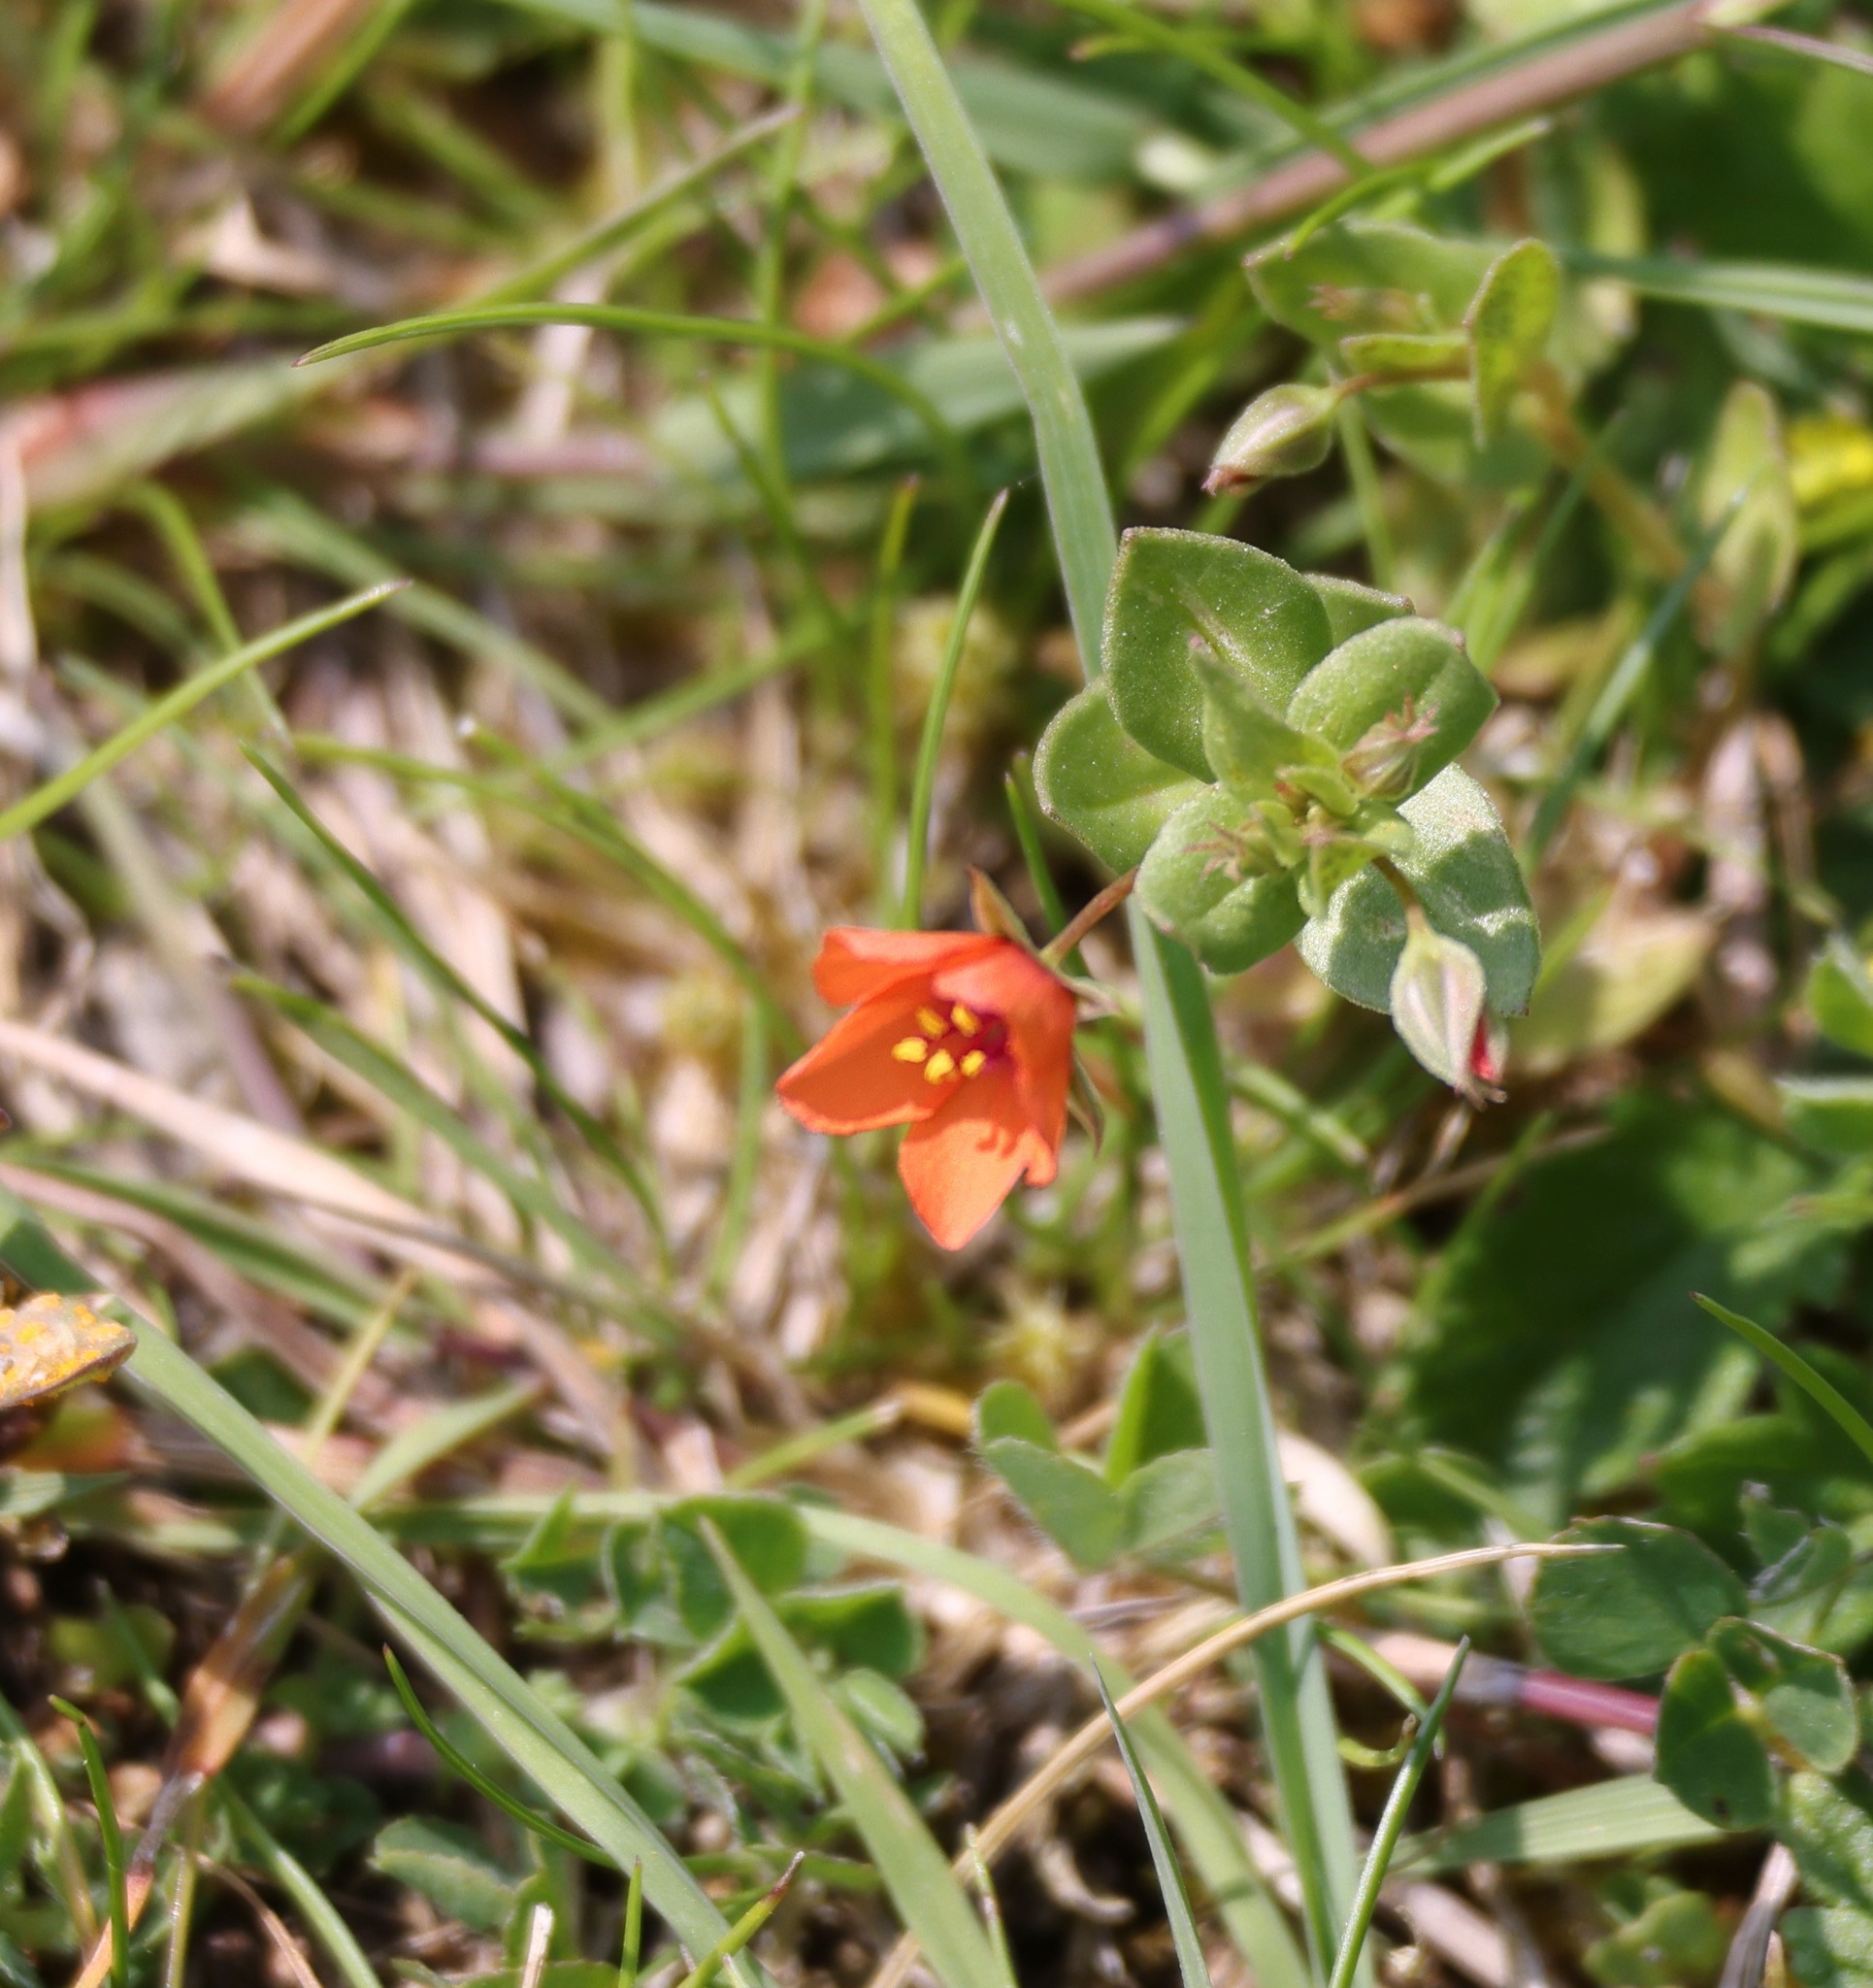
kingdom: Plantae
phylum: Tracheophyta
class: Magnoliopsida
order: Ericales
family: Primulaceae
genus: Lysimachia
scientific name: Lysimachia arvensis
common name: Scarlet pimpernel
